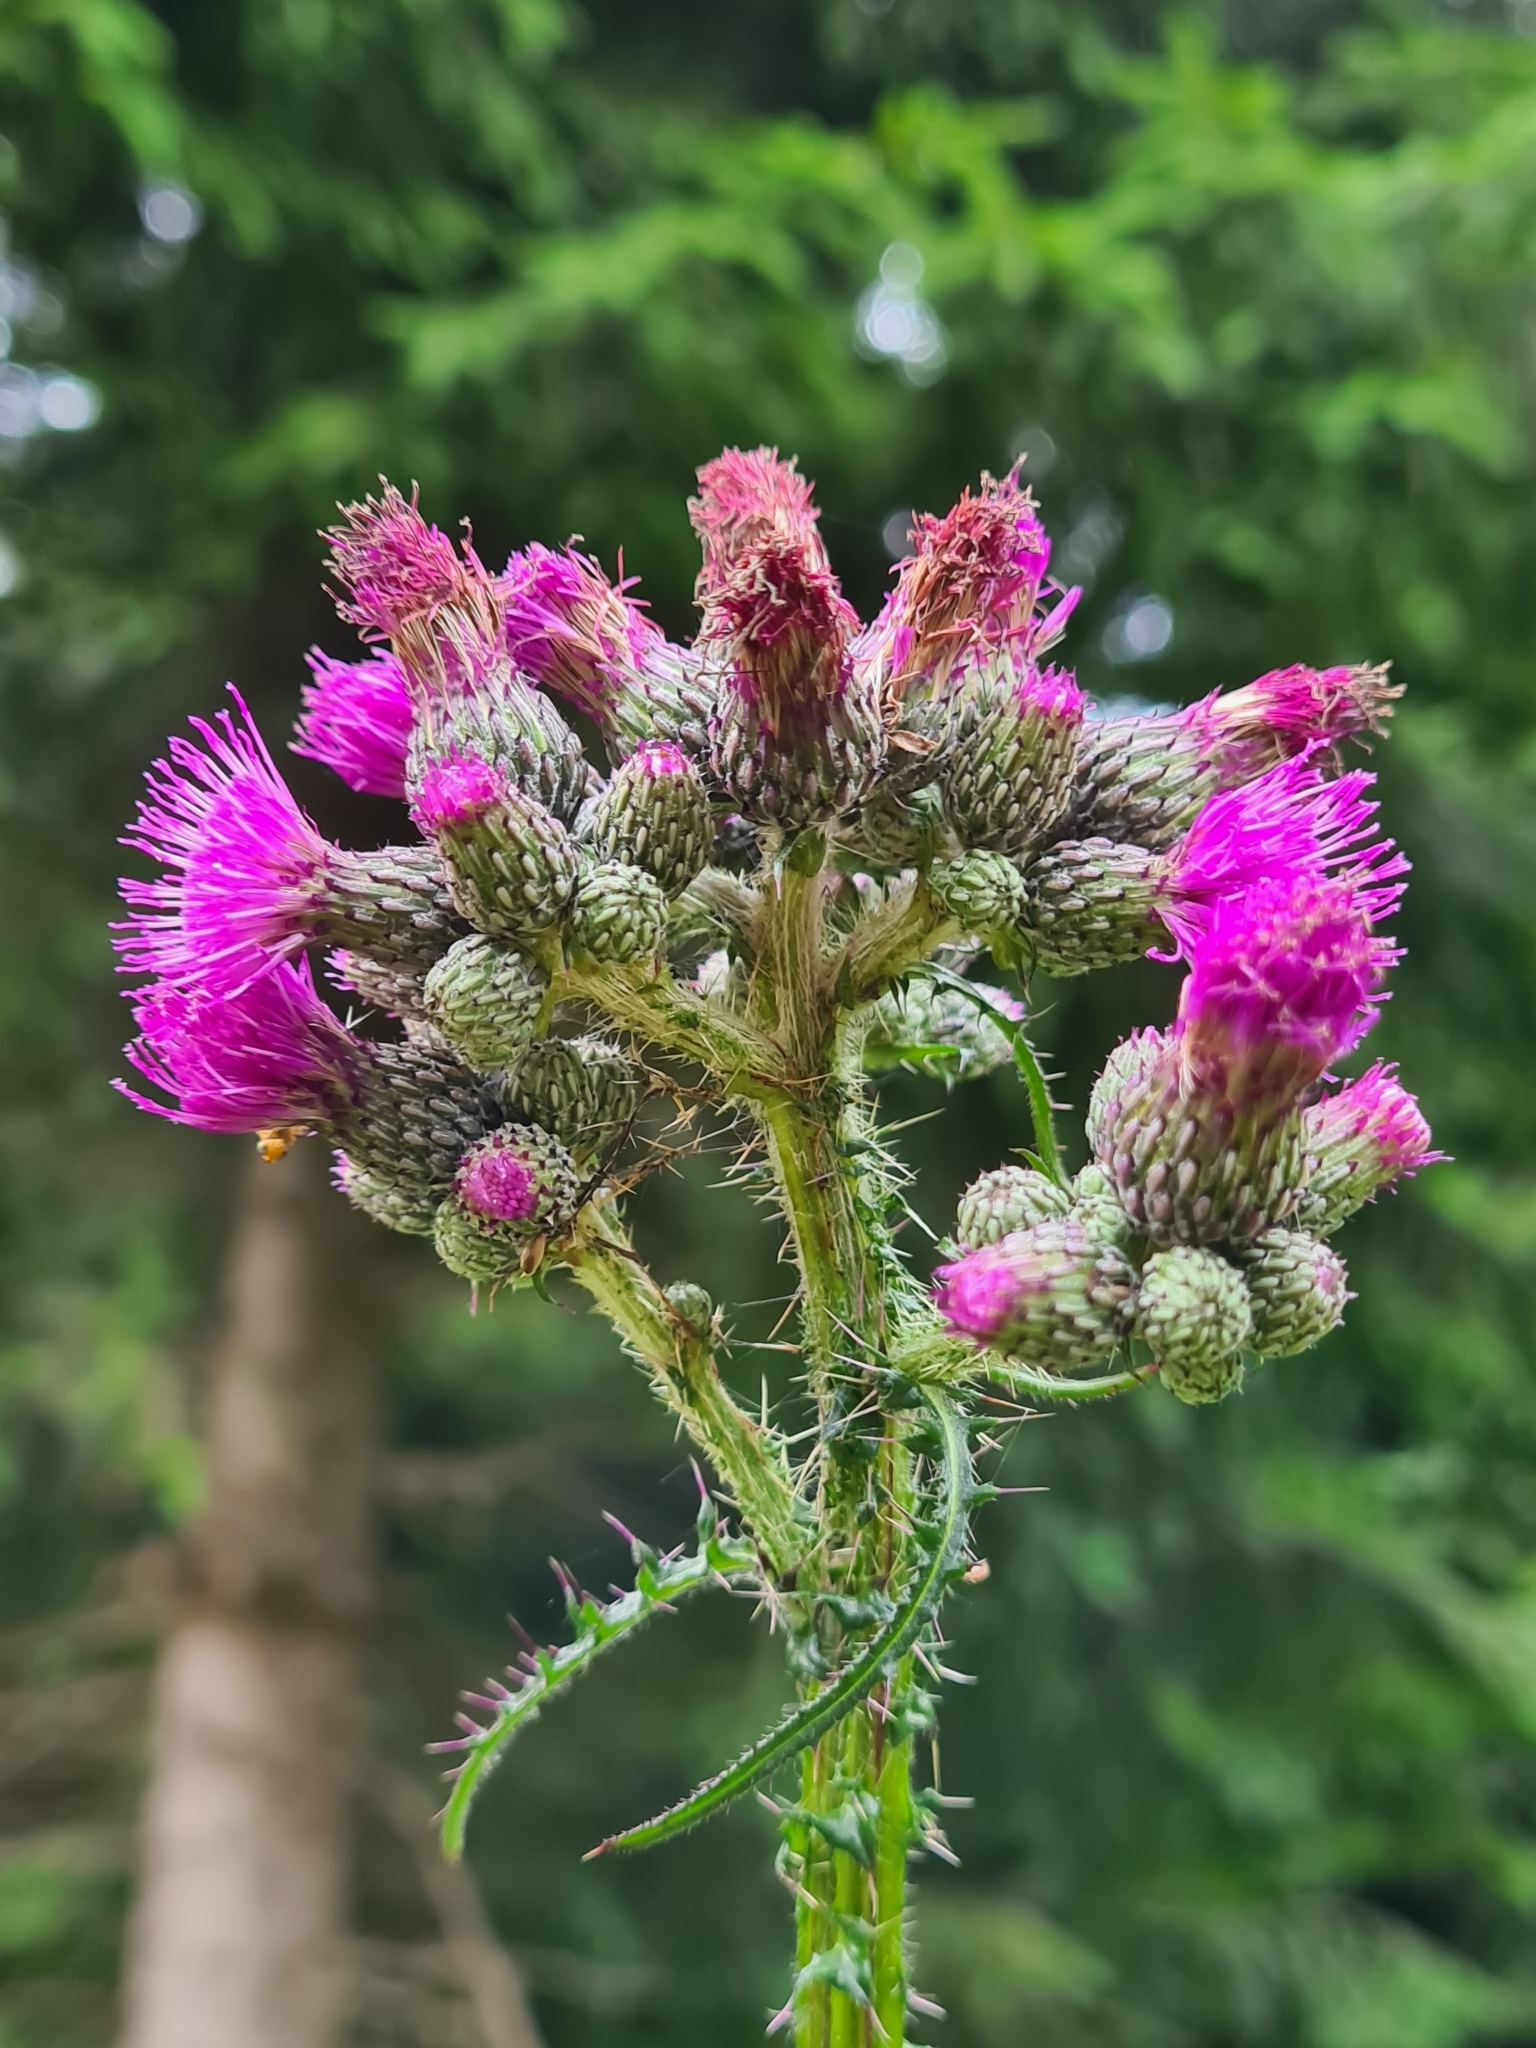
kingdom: Plantae
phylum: Tracheophyta
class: Magnoliopsida
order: Asterales
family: Asteraceae
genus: Cirsium
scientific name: Cirsium palustre
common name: Marsh thistle
